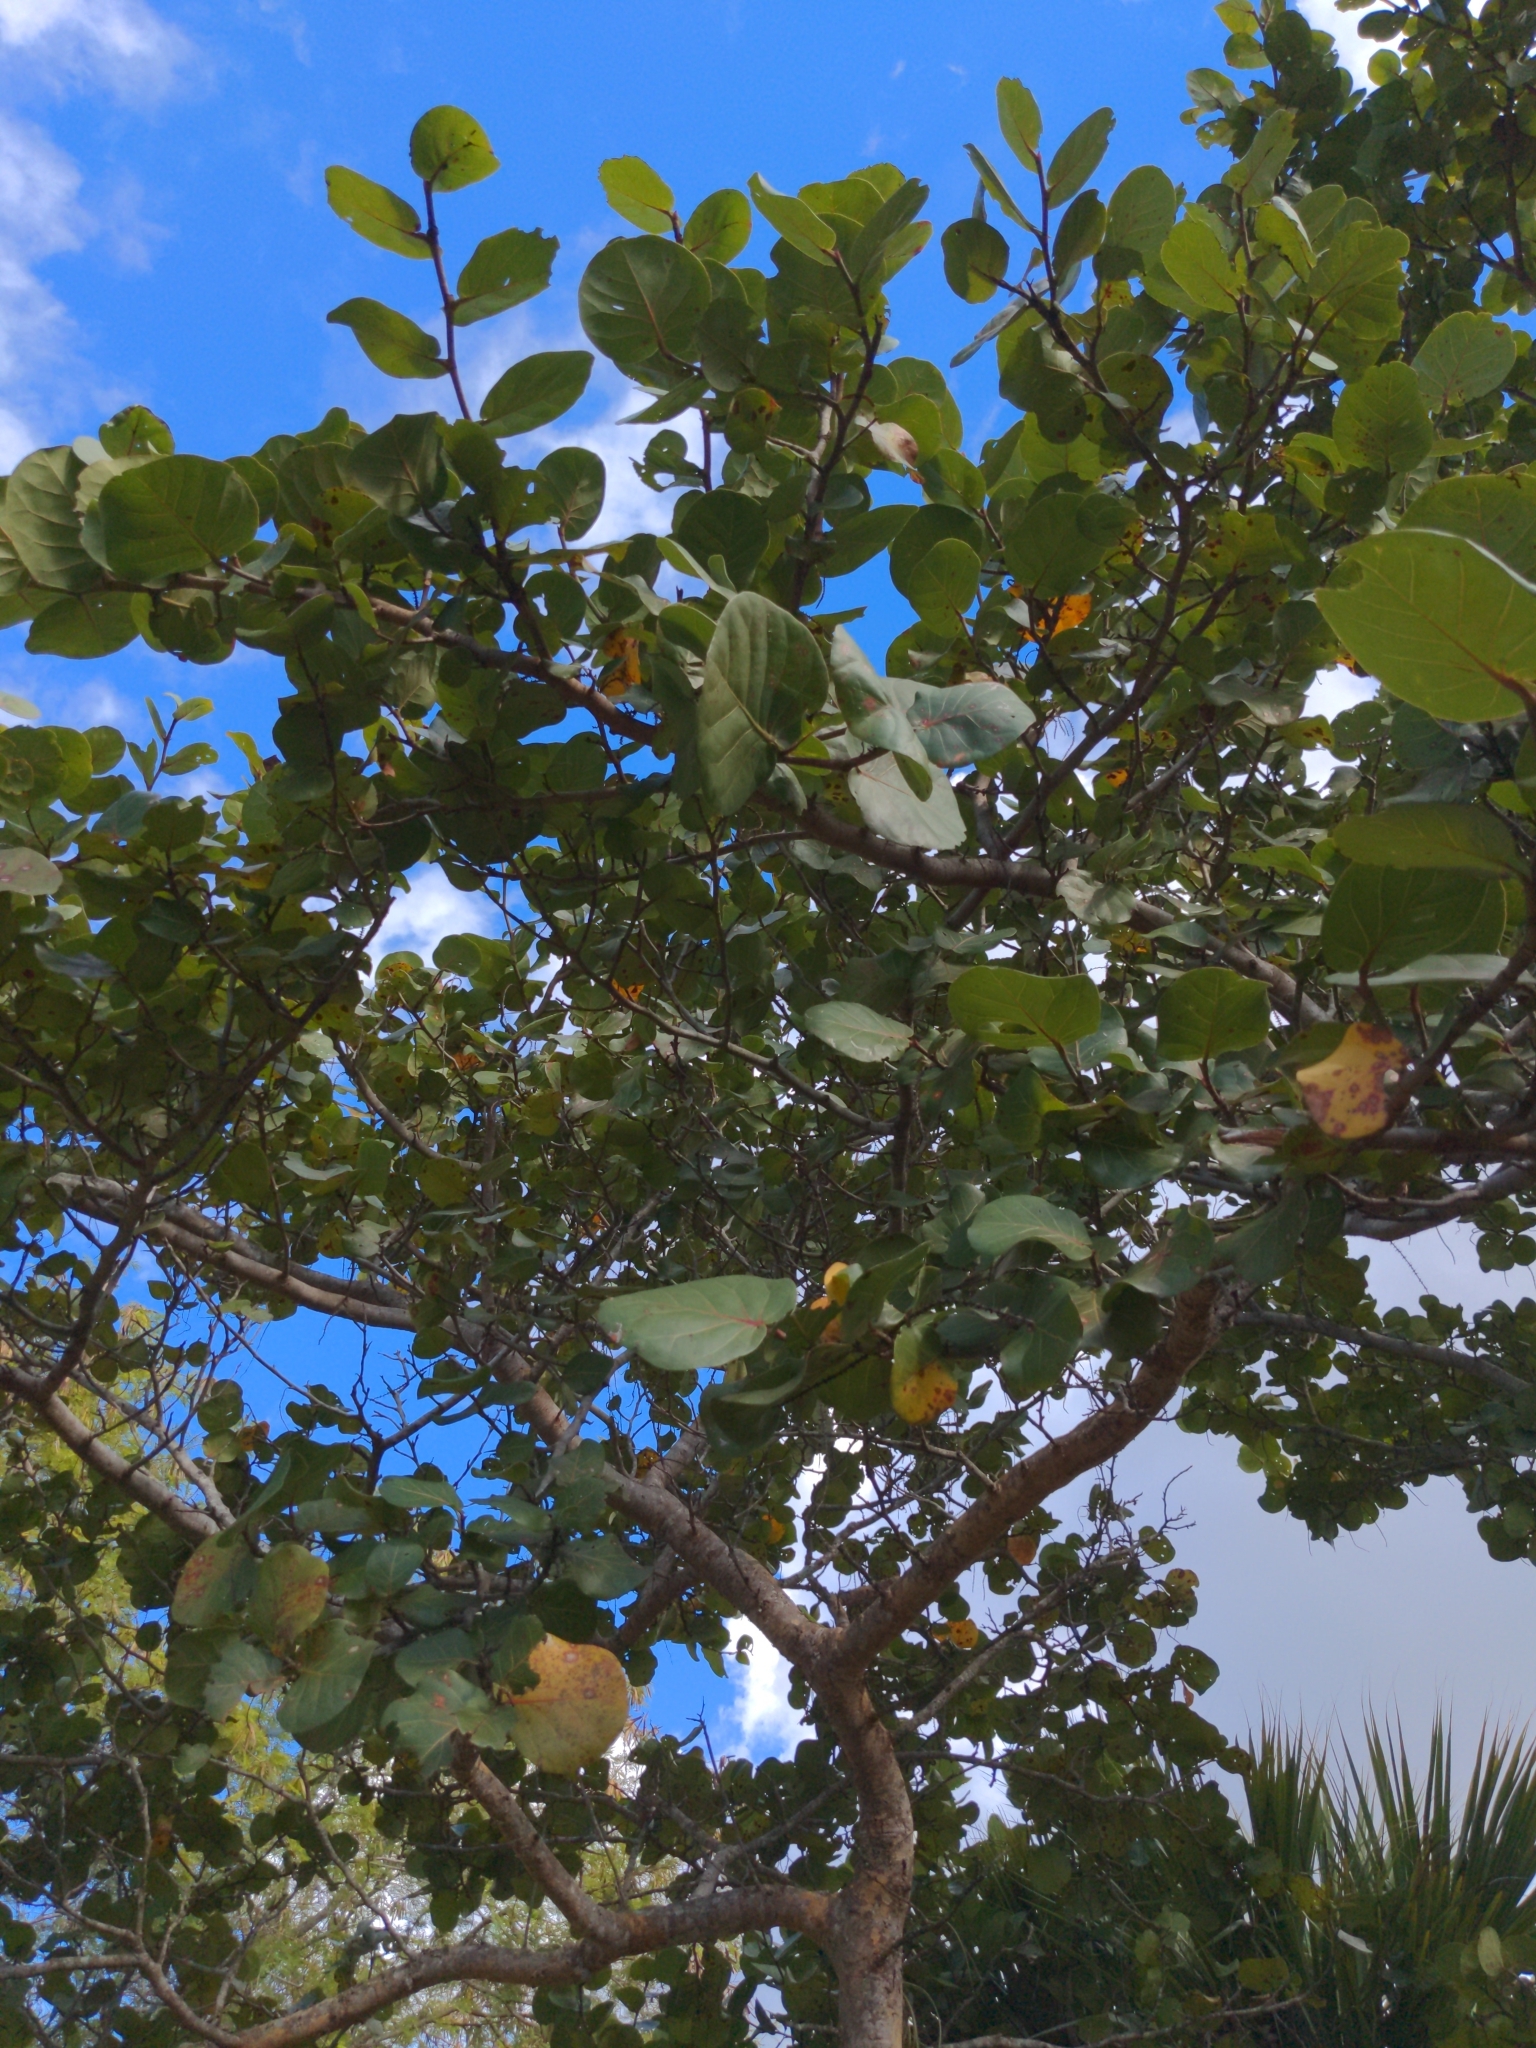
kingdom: Plantae
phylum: Tracheophyta
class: Magnoliopsida
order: Caryophyllales
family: Polygonaceae
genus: Coccoloba
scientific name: Coccoloba uvifera
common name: Seagrape
